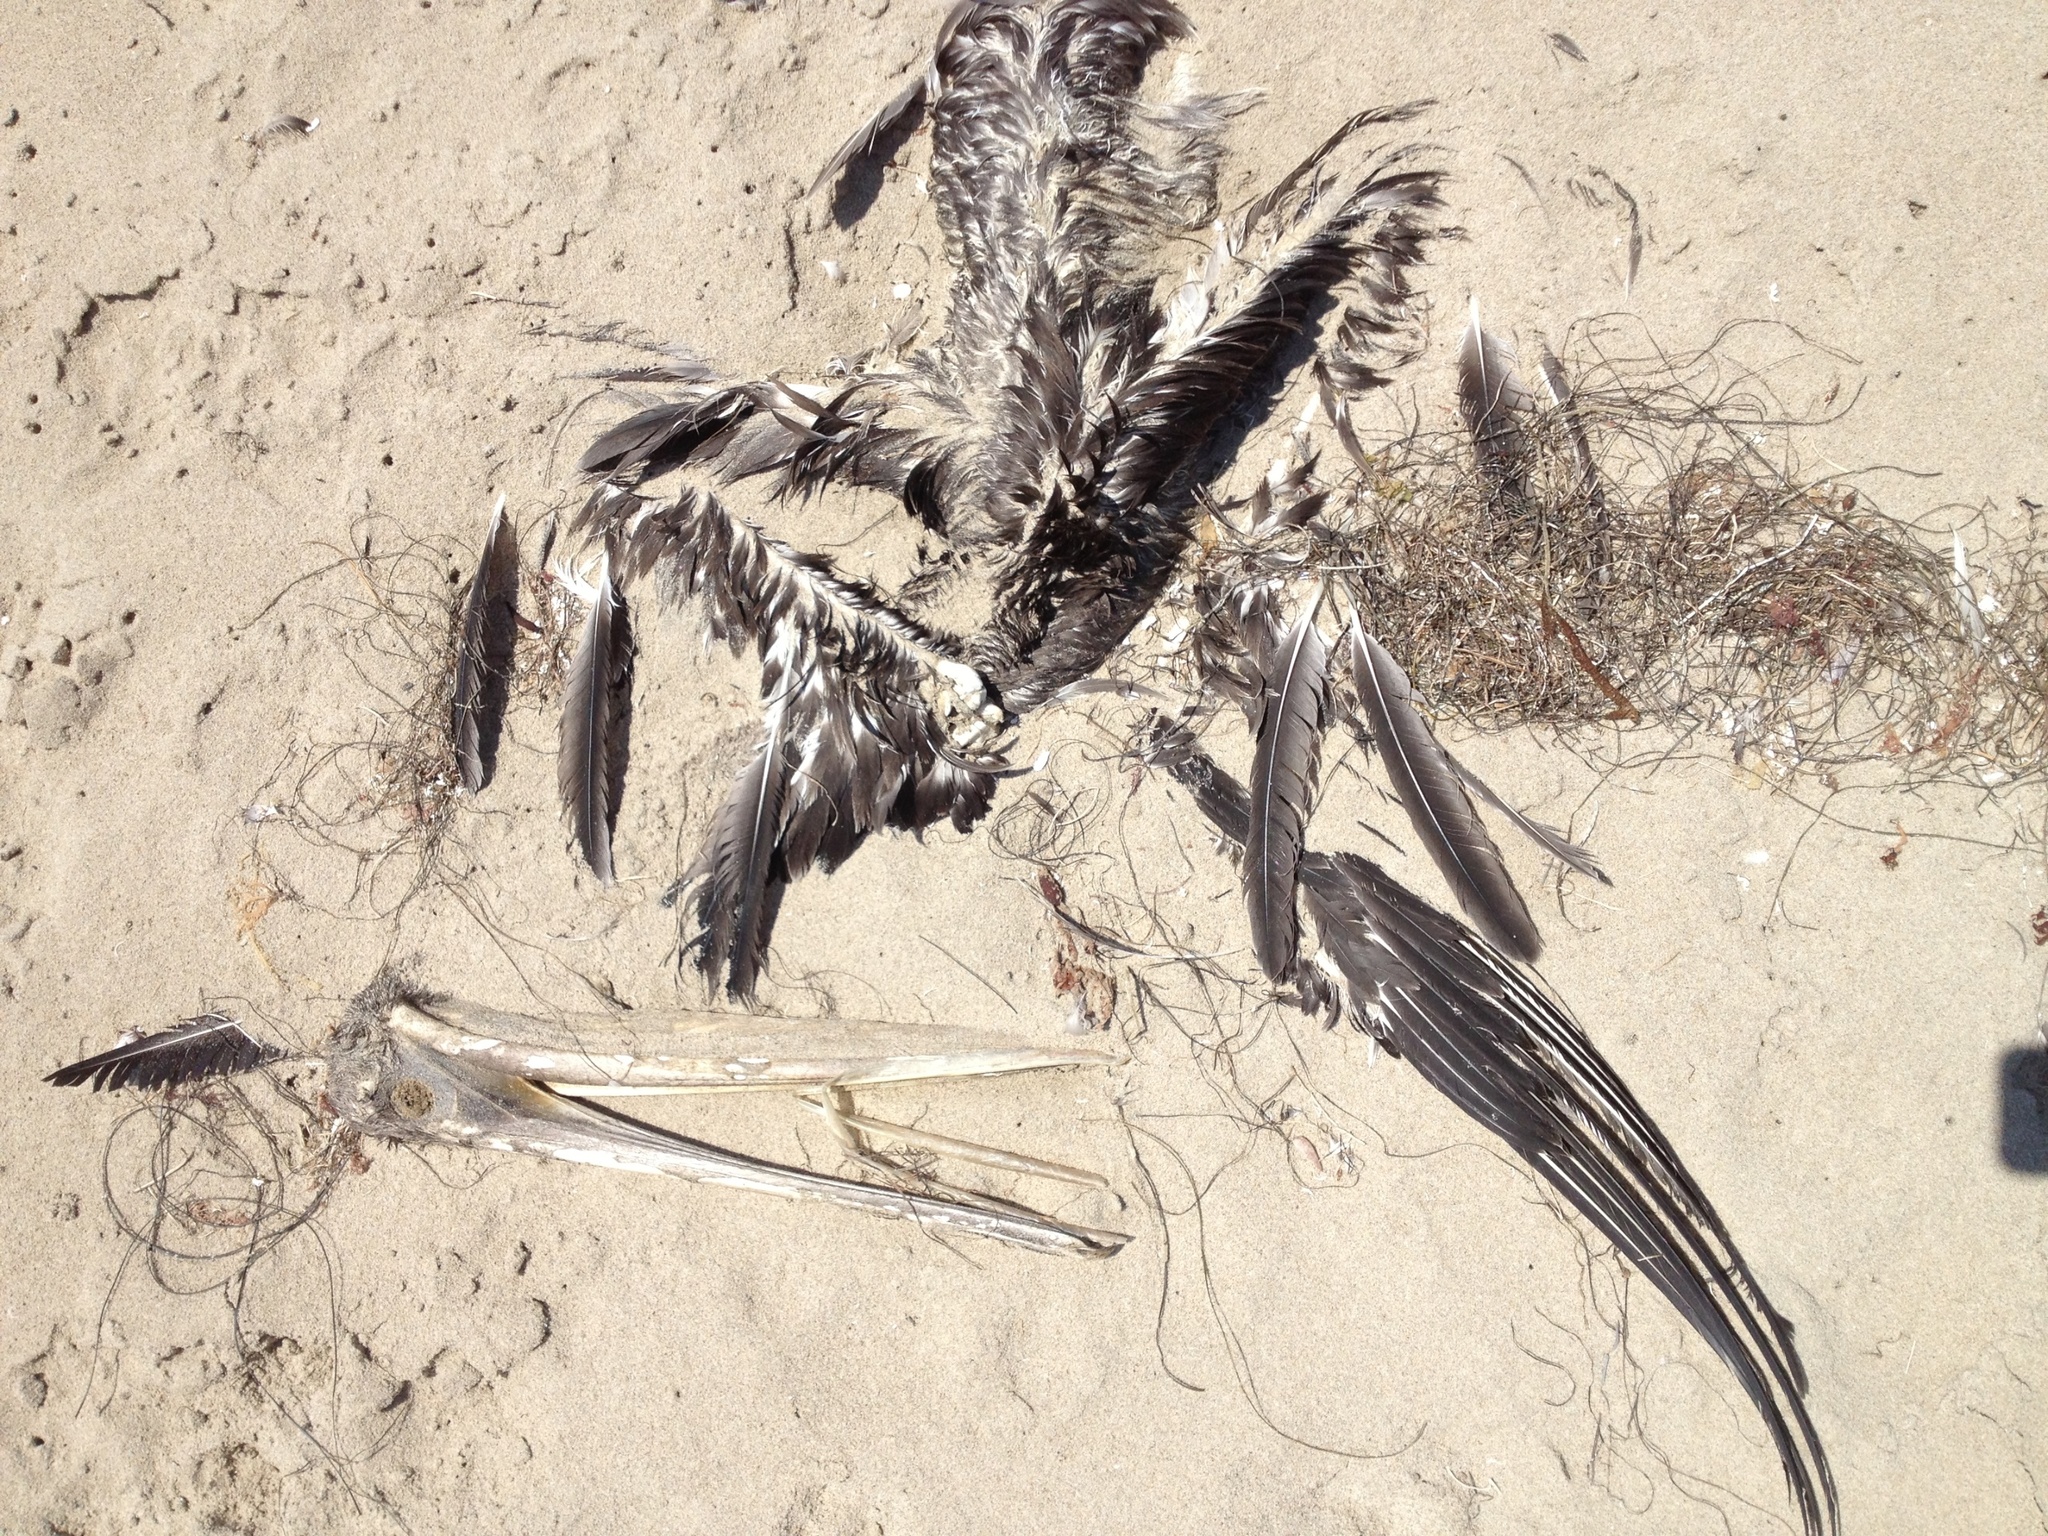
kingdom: Animalia
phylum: Chordata
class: Aves
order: Pelecaniformes
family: Pelecanidae
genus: Pelecanus
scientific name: Pelecanus occidentalis
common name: Brown pelican
